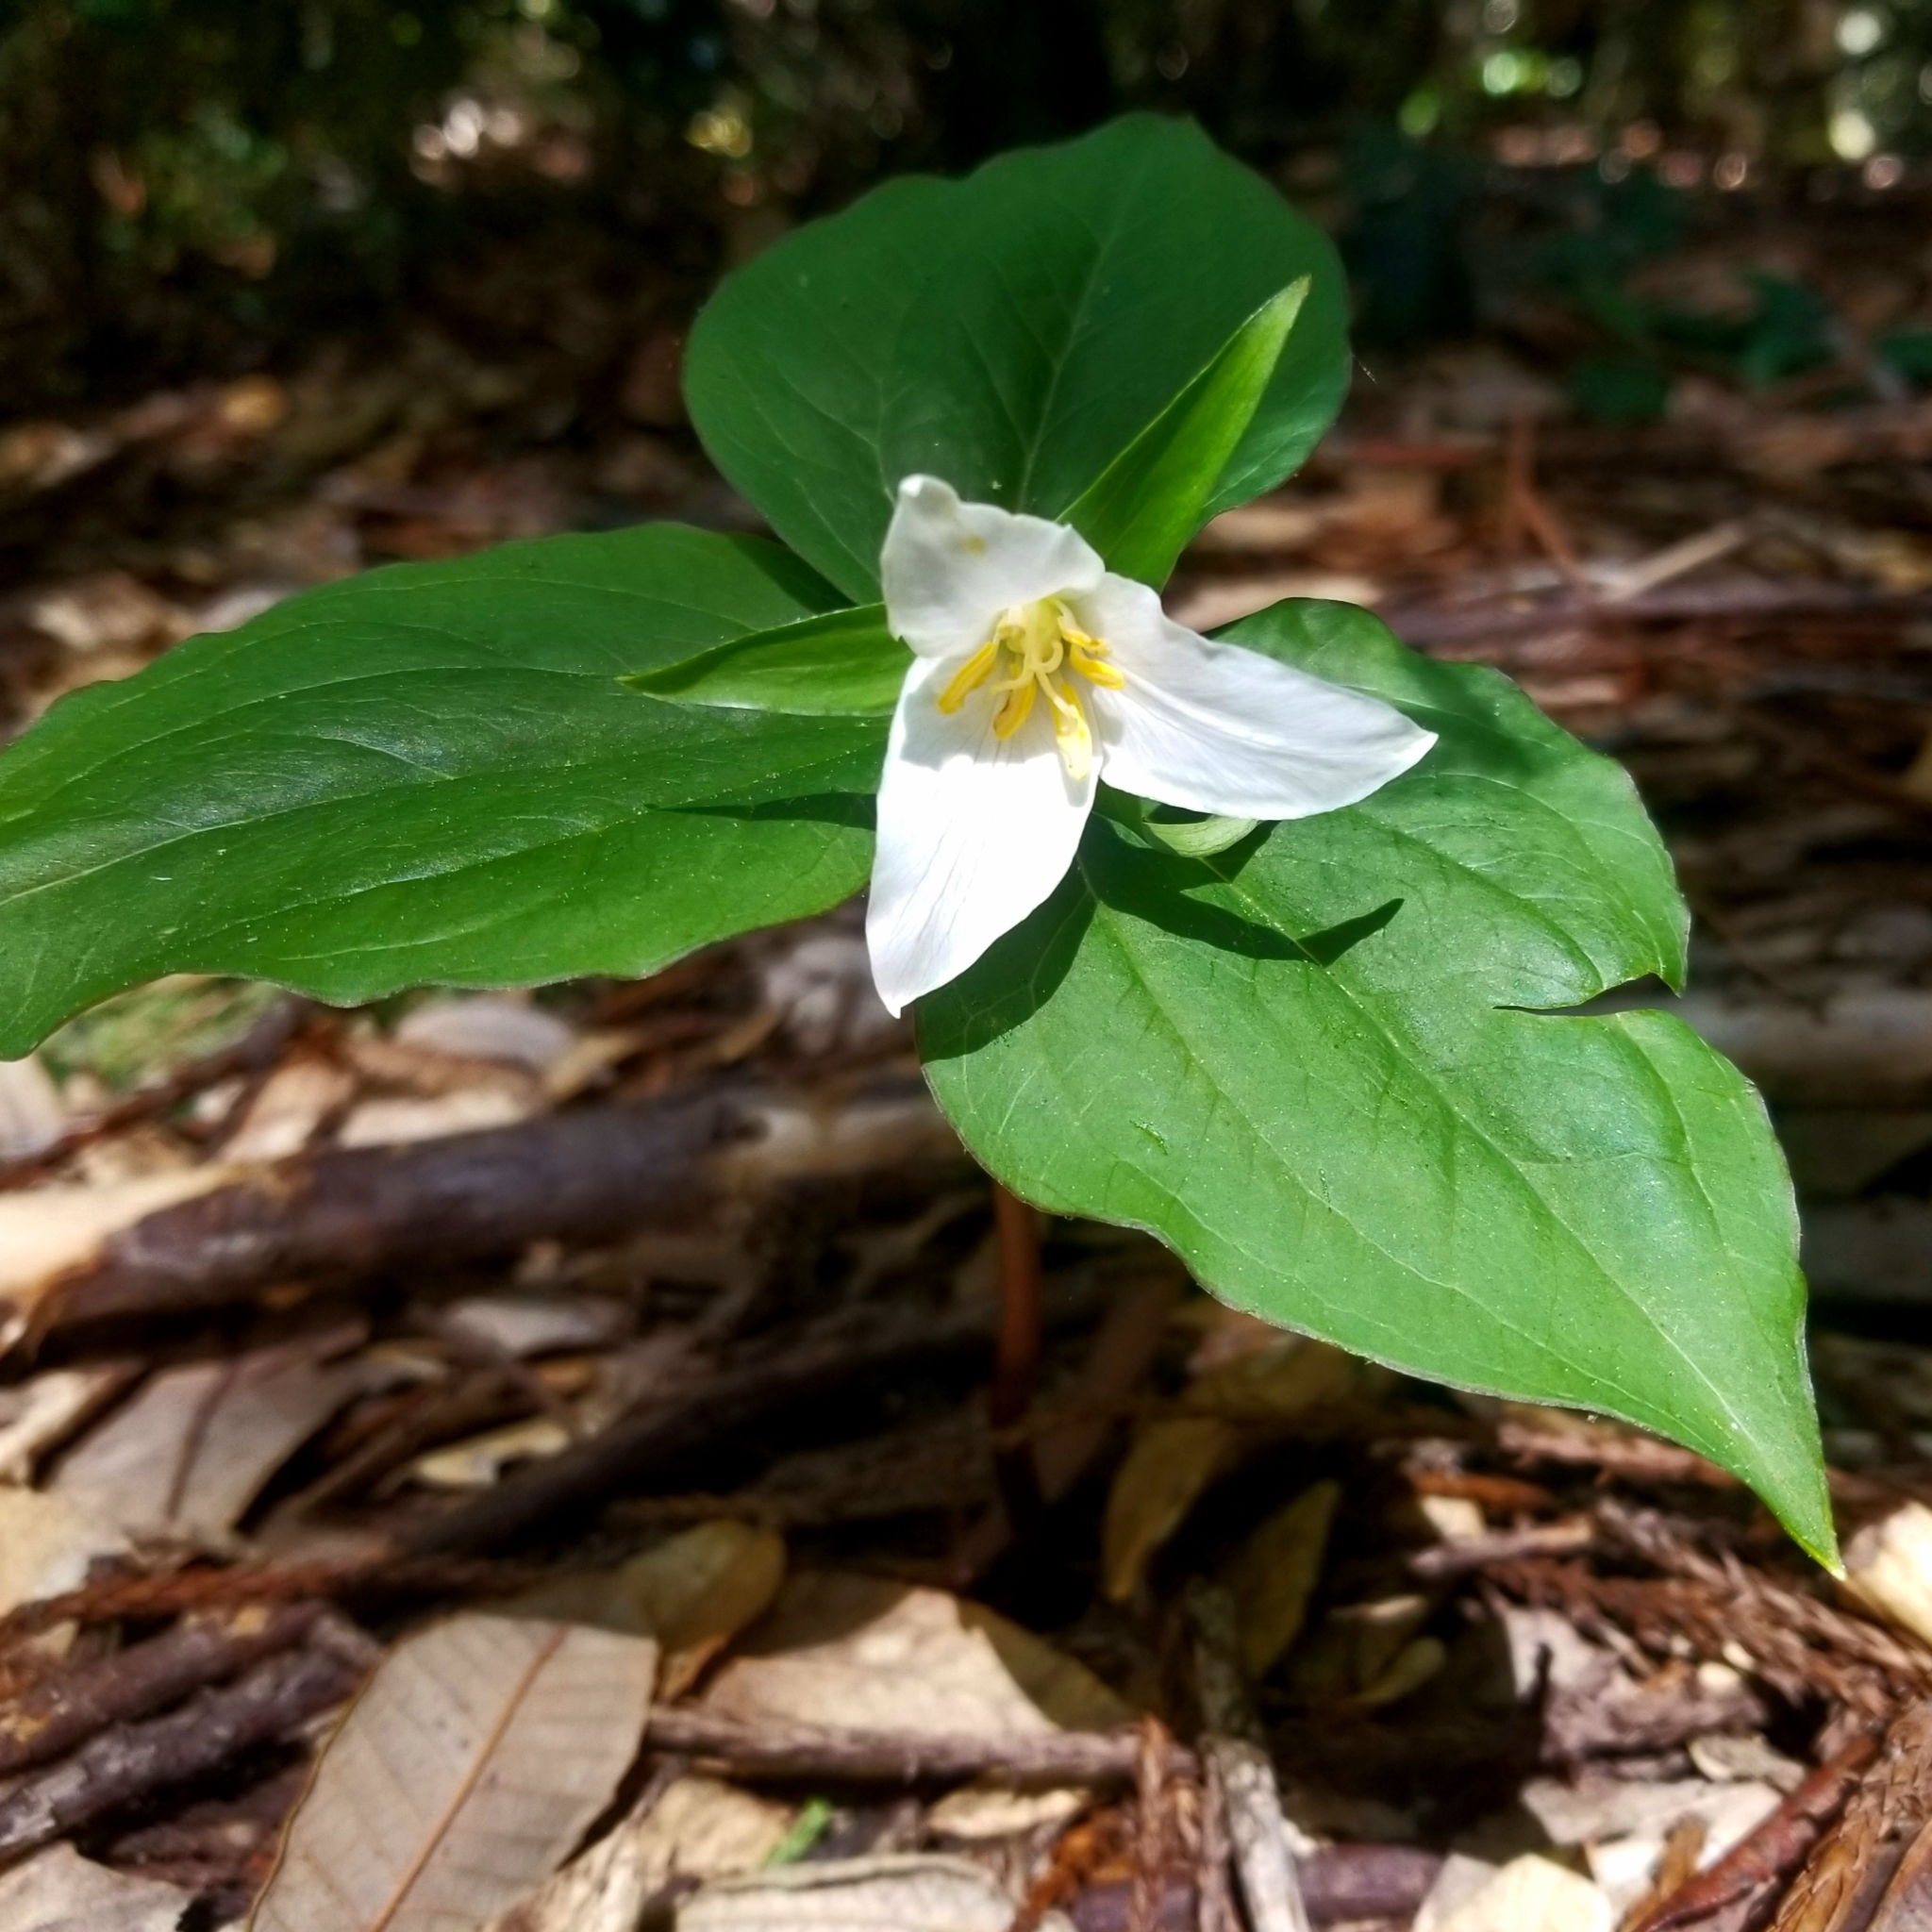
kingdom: Plantae
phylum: Tracheophyta
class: Liliopsida
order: Liliales
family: Melanthiaceae
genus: Trillium
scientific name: Trillium ovatum
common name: Pacific trillium
